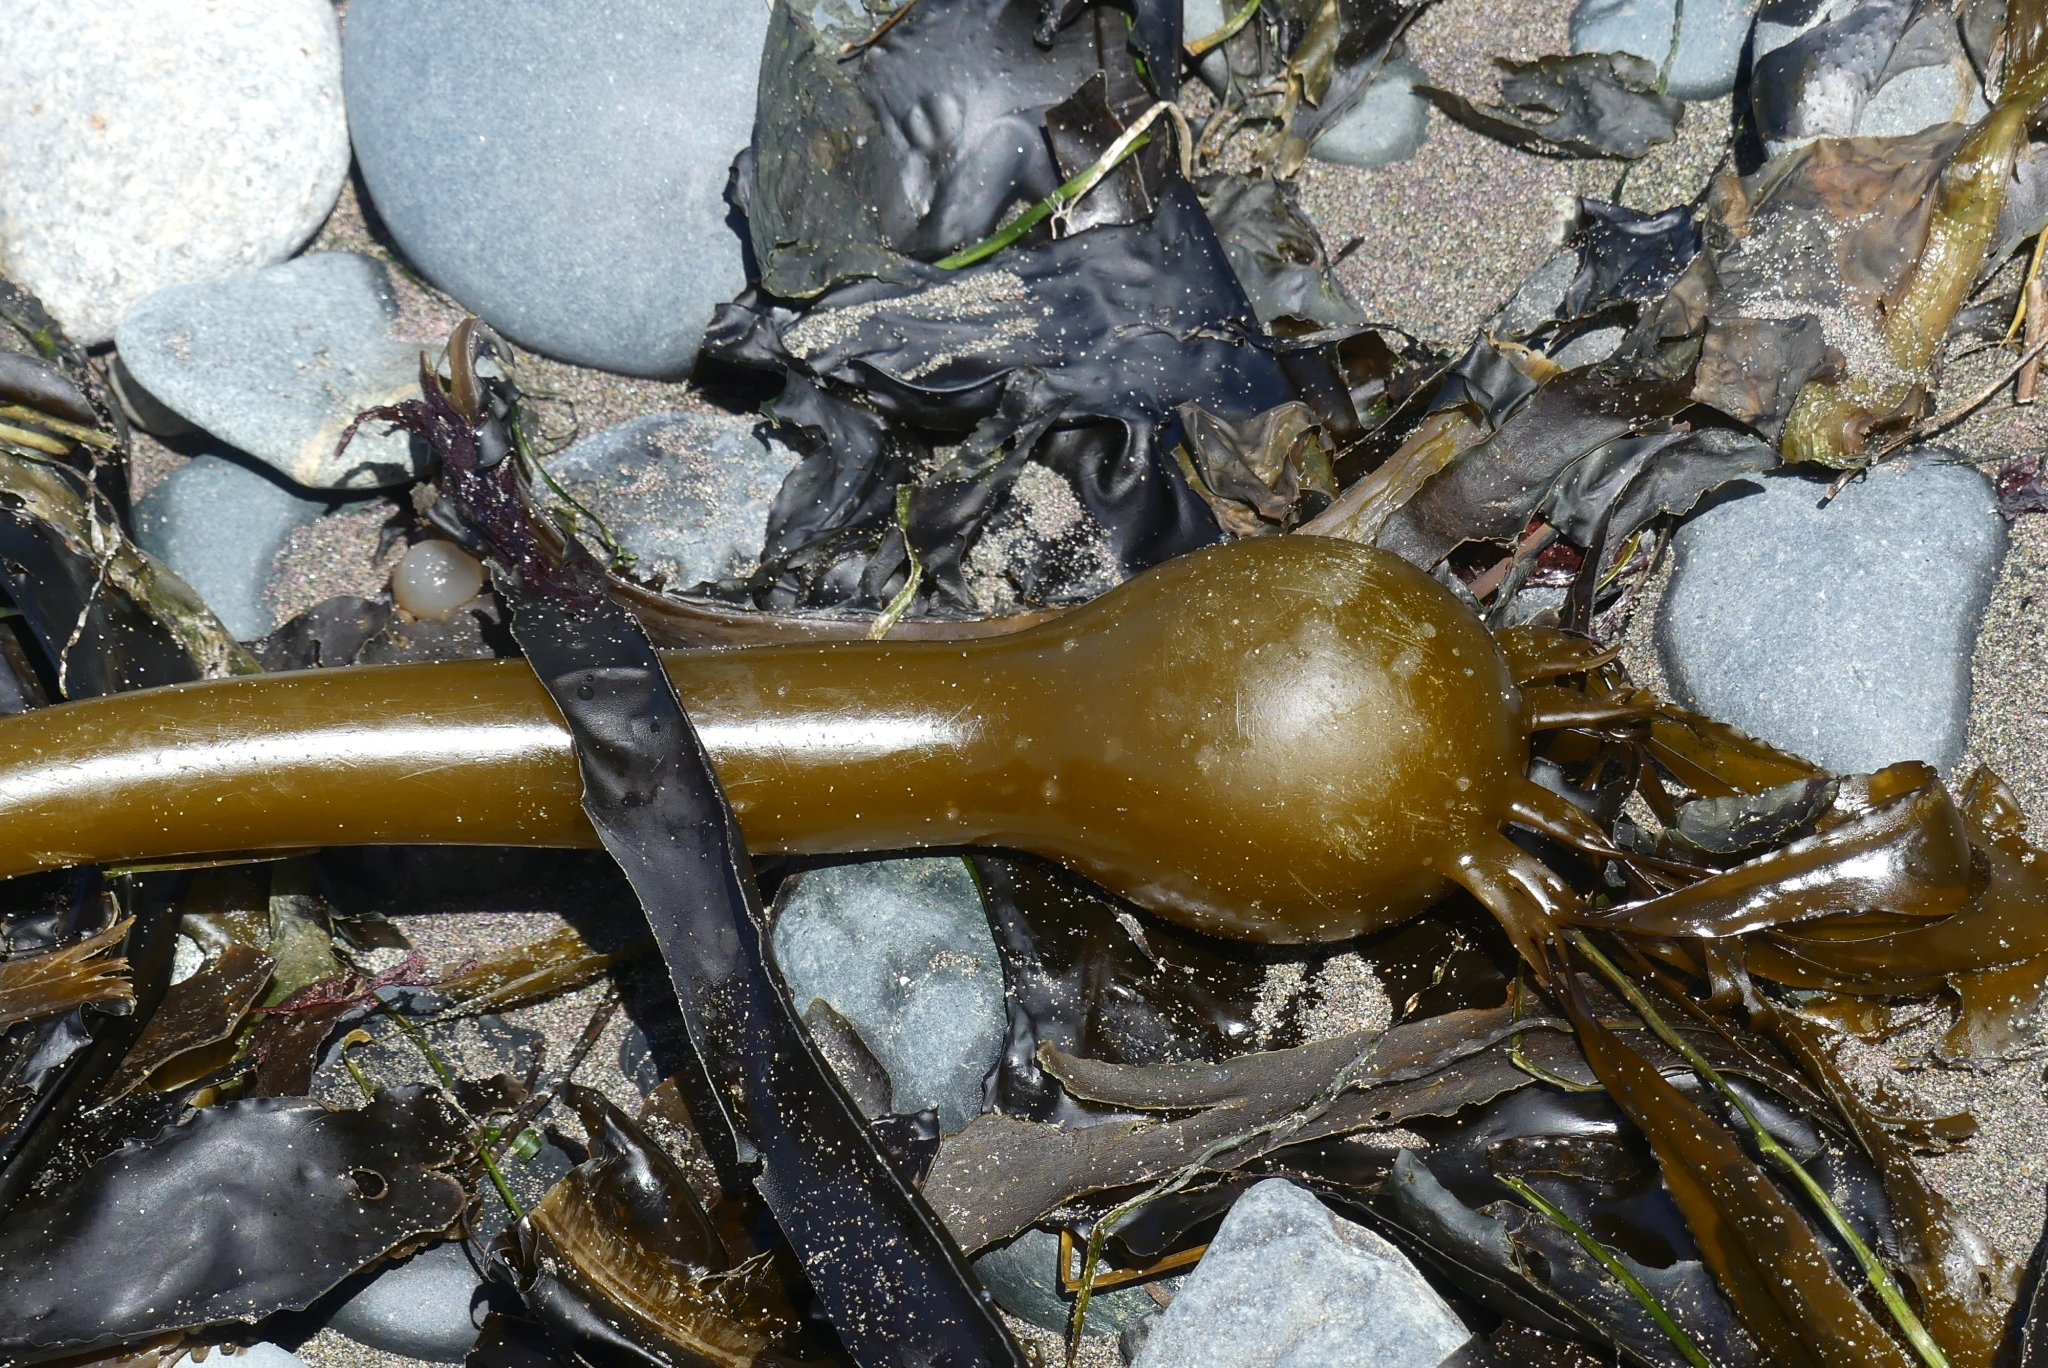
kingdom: Chromista
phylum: Ochrophyta
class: Phaeophyceae
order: Laminariales
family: Laminariaceae
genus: Nereocystis
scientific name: Nereocystis luetkeana
